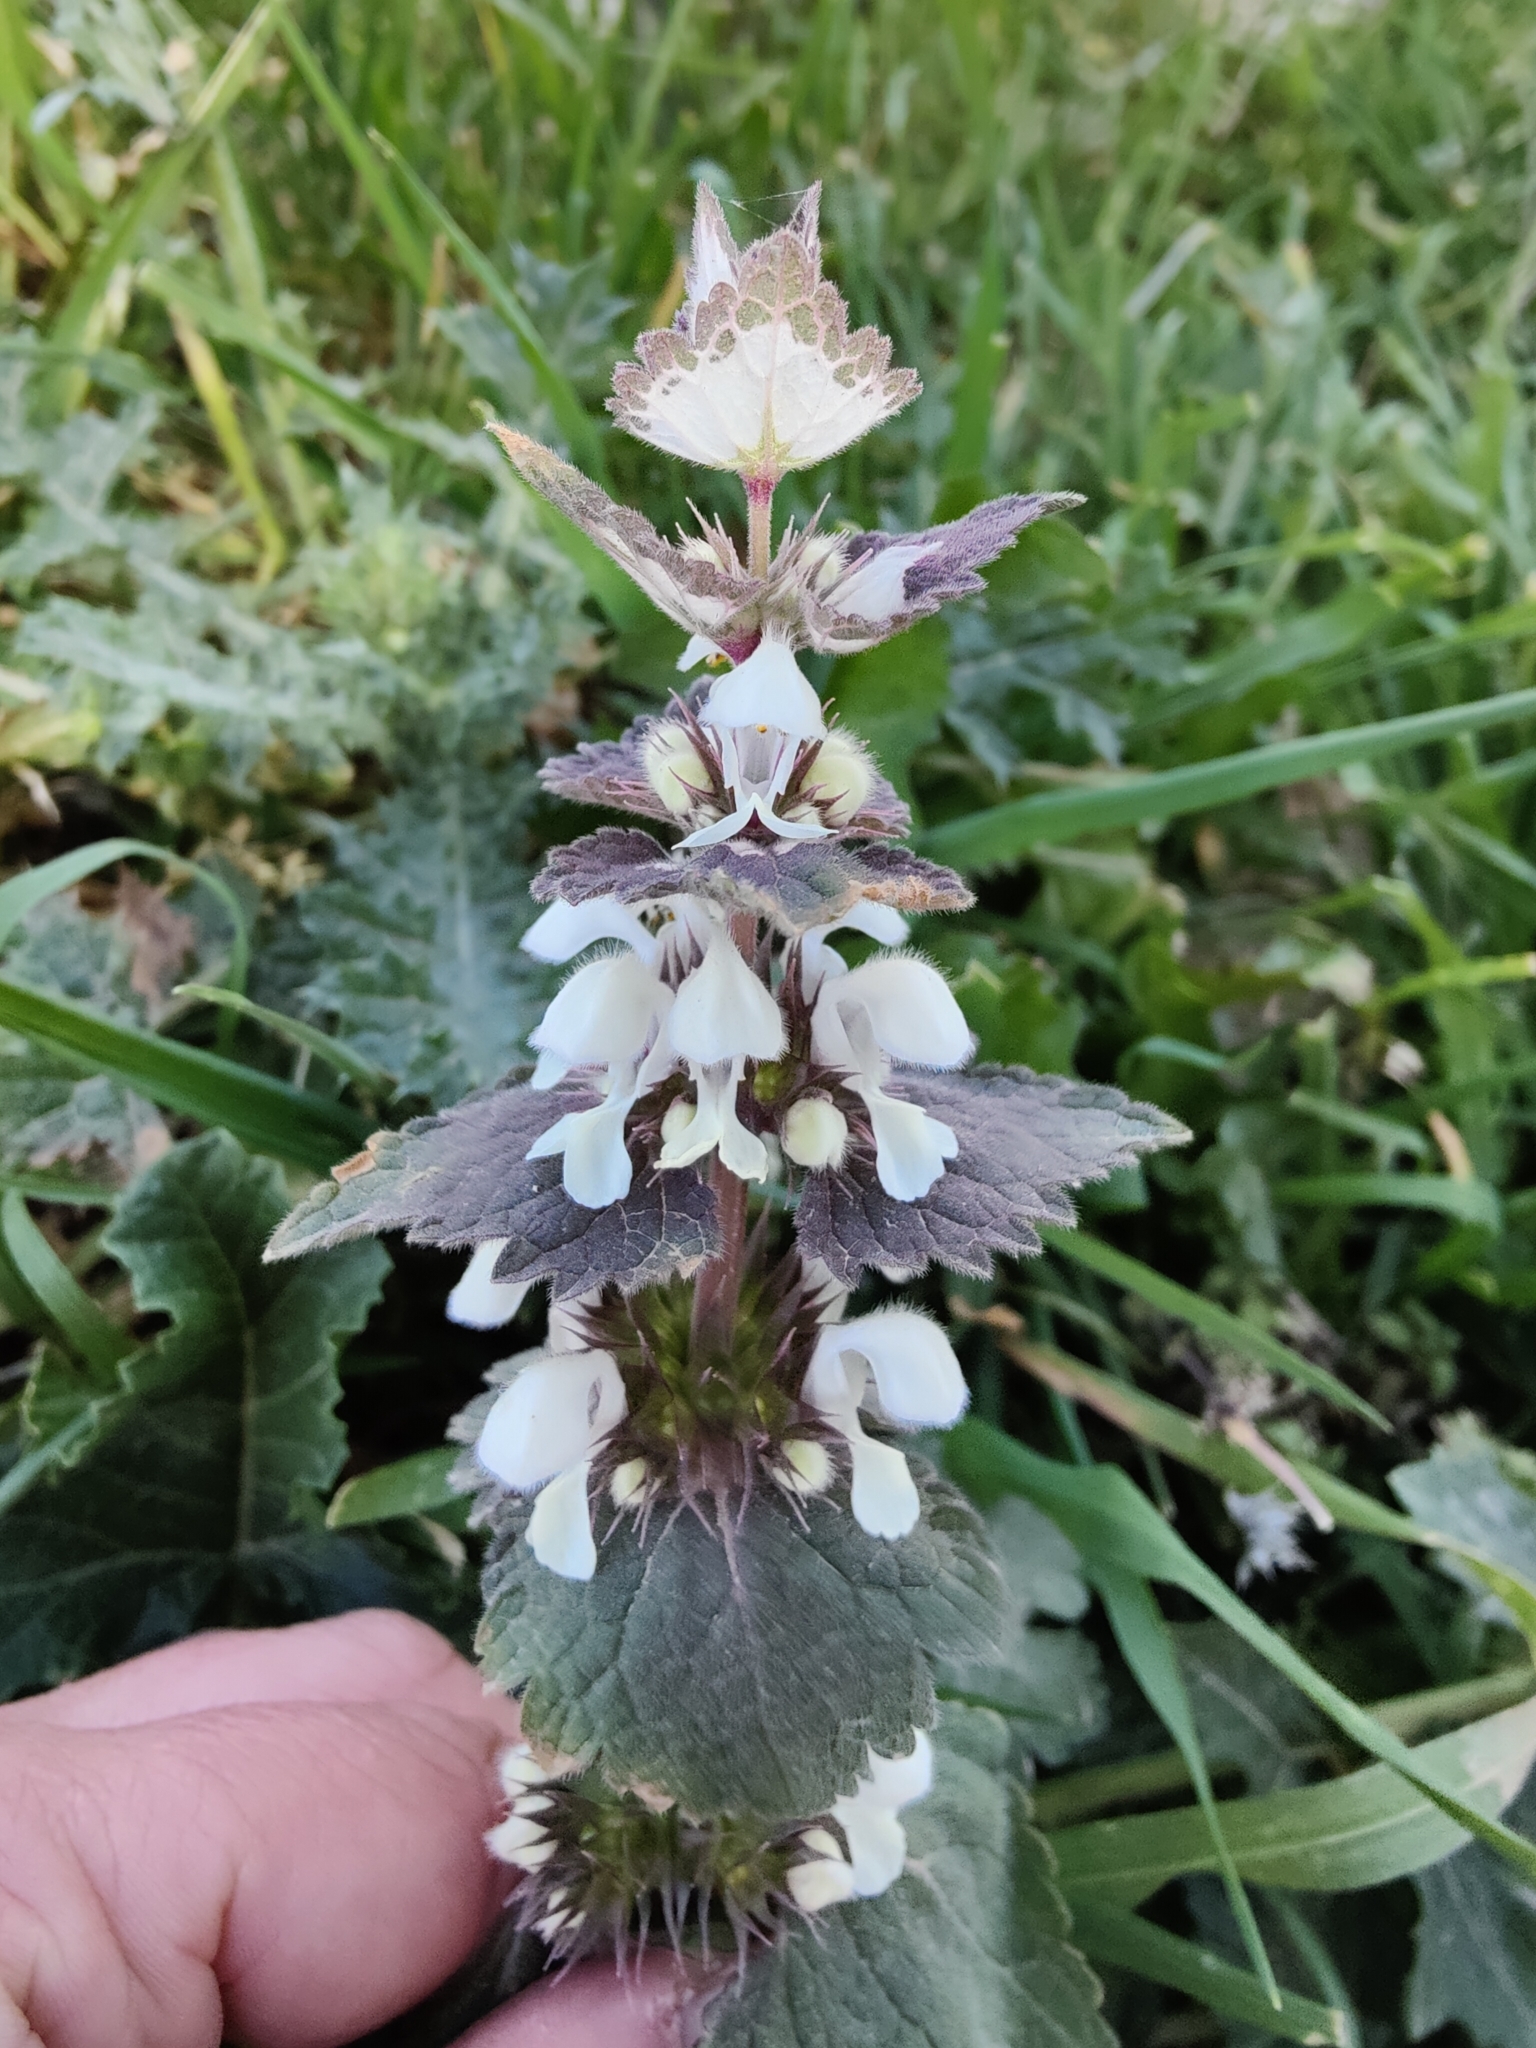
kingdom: Plantae
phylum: Tracheophyta
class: Magnoliopsida
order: Lamiales
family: Lamiaceae
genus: Lamium
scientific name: Lamium moschatum
